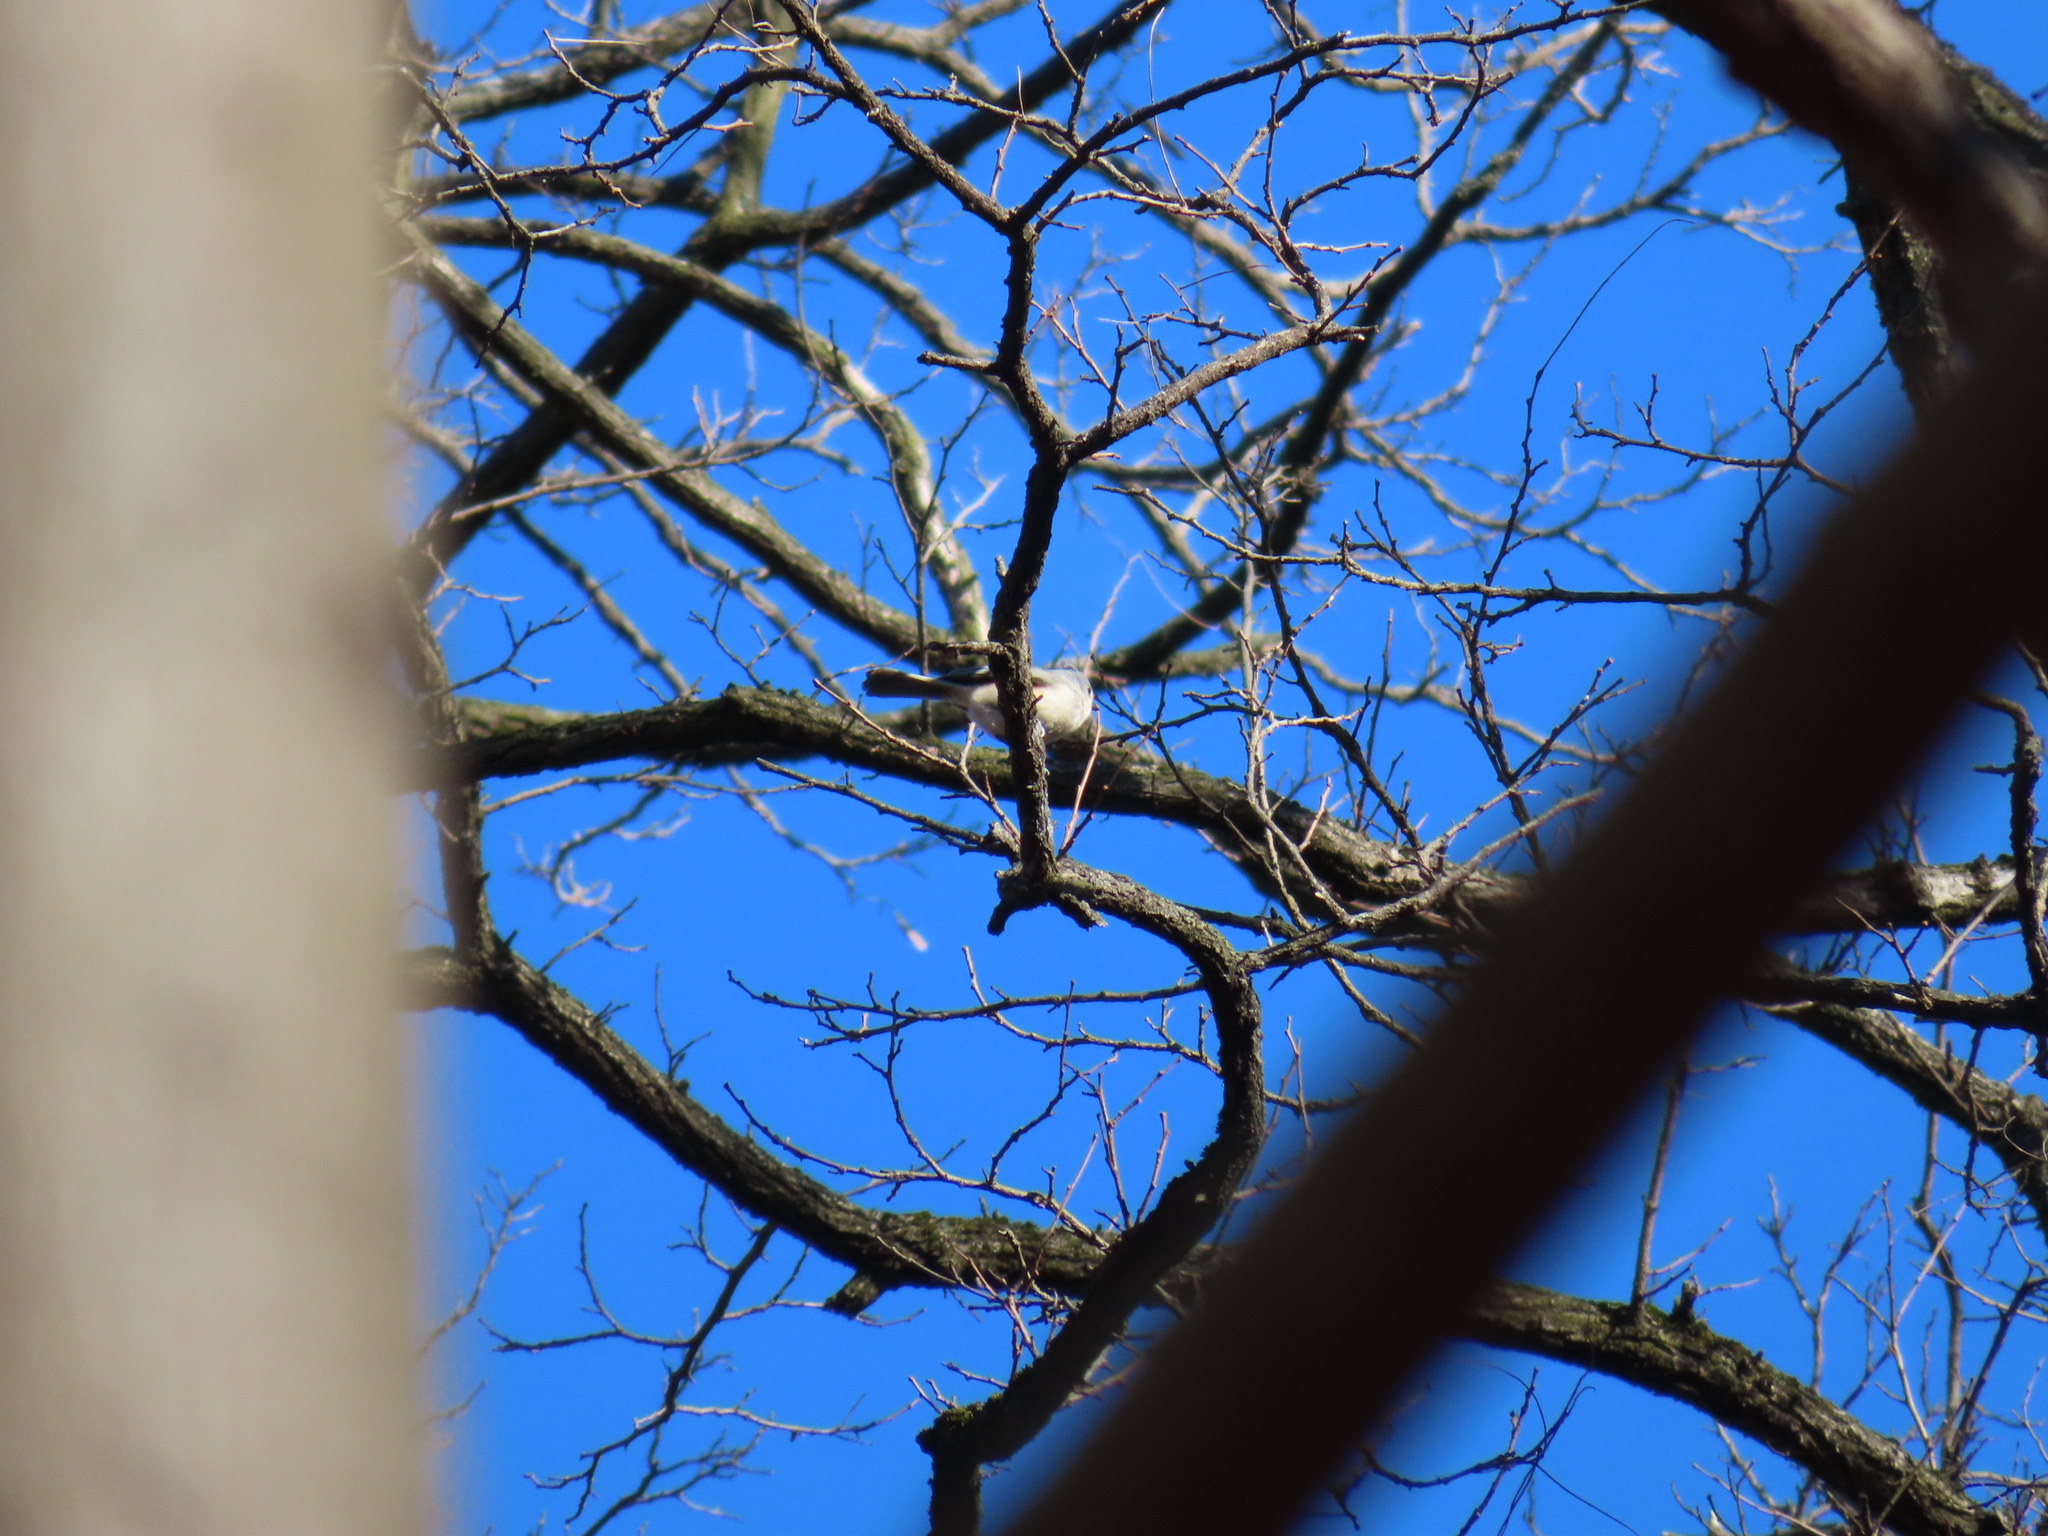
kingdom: Animalia
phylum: Chordata
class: Aves
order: Passeriformes
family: Paridae
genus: Baeolophus
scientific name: Baeolophus bicolor
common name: Tufted titmouse
